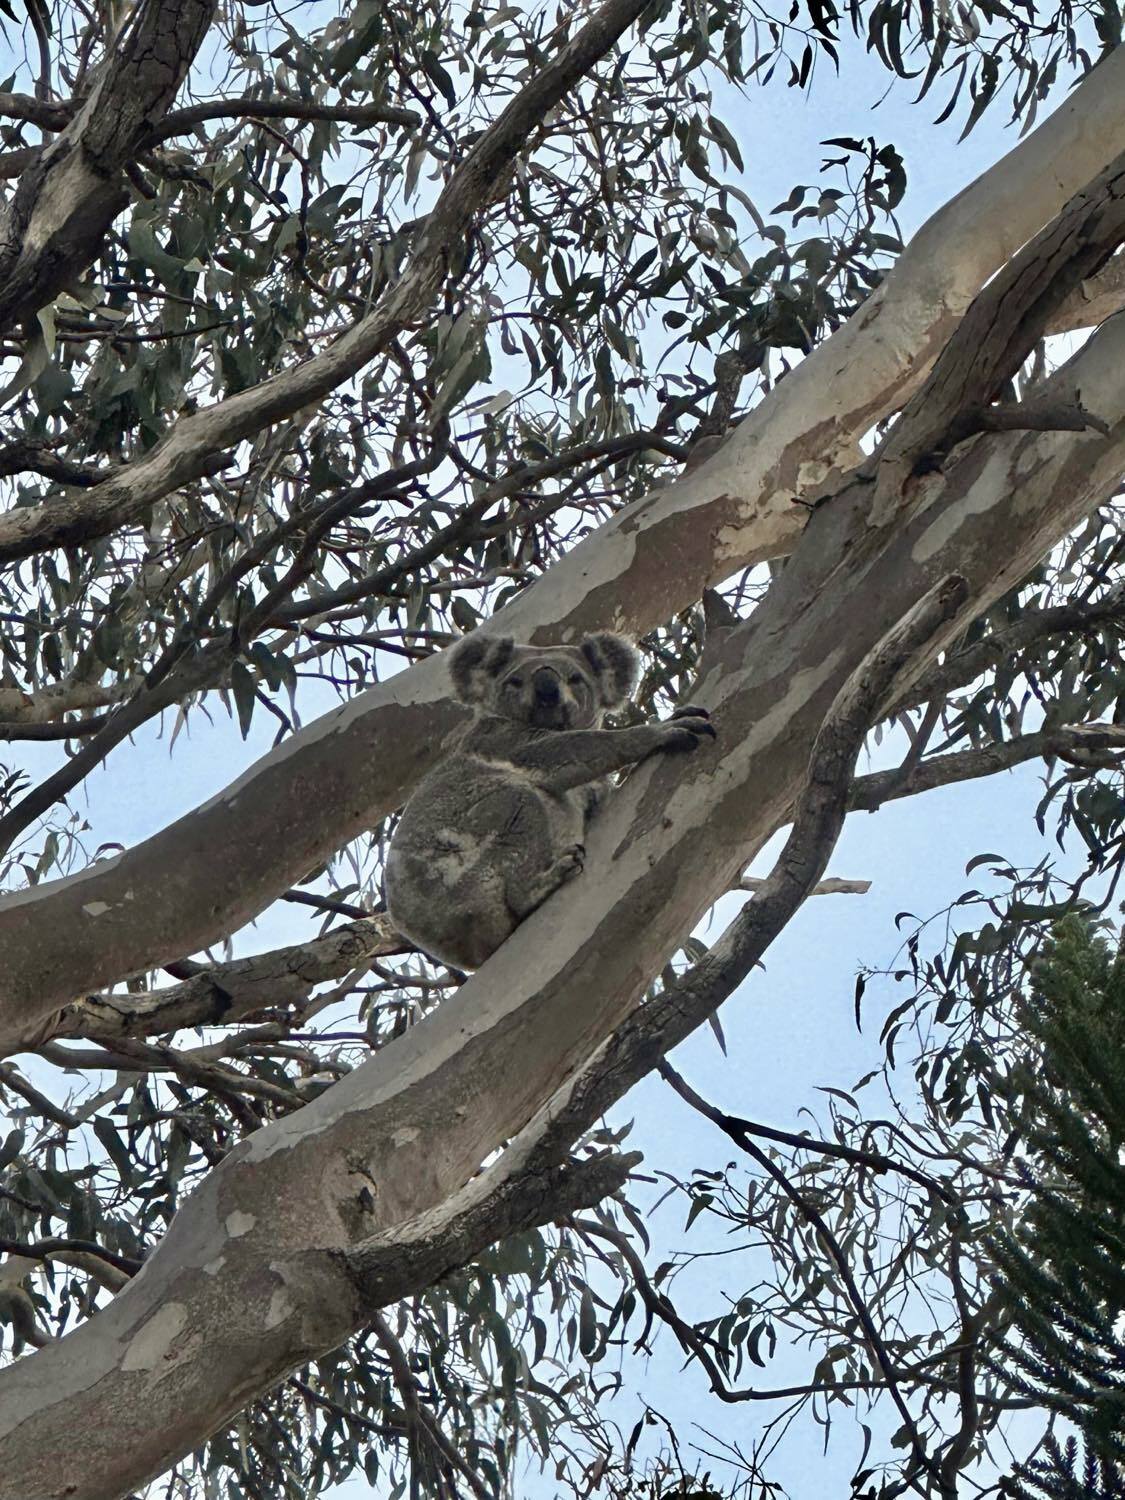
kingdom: Animalia
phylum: Chordata
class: Mammalia
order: Diprotodontia
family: Phascolarctidae
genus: Phascolarctos
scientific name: Phascolarctos cinereus
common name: Koala
